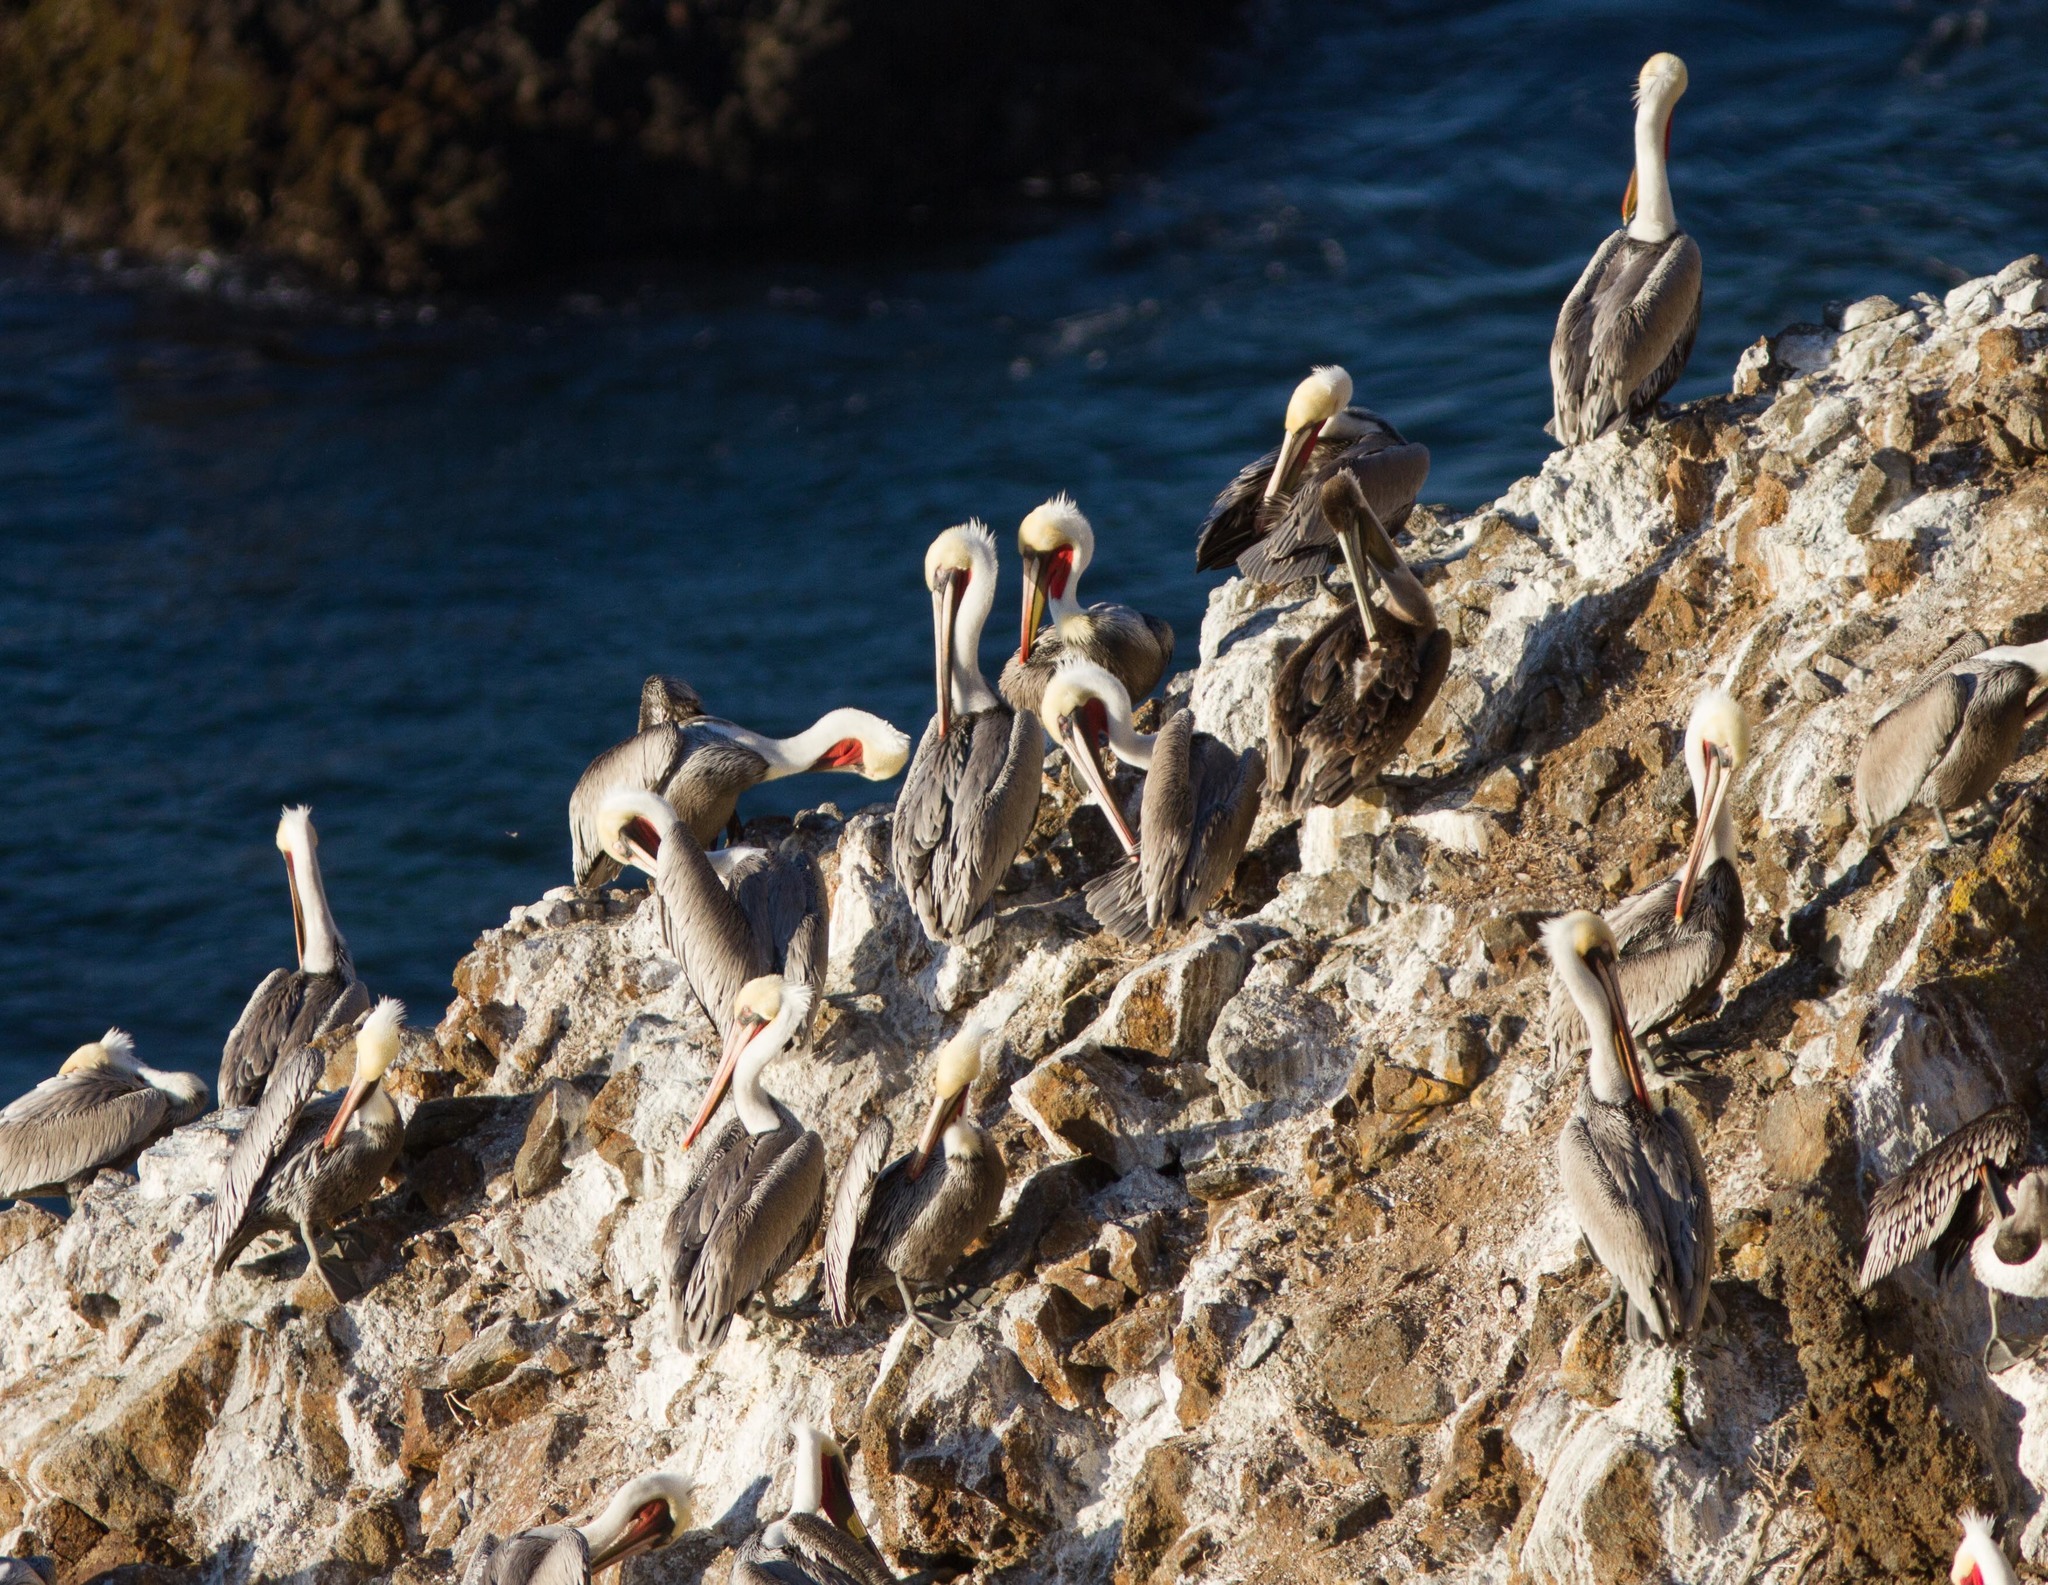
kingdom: Animalia
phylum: Chordata
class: Aves
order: Pelecaniformes
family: Pelecanidae
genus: Pelecanus
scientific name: Pelecanus occidentalis
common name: Brown pelican
